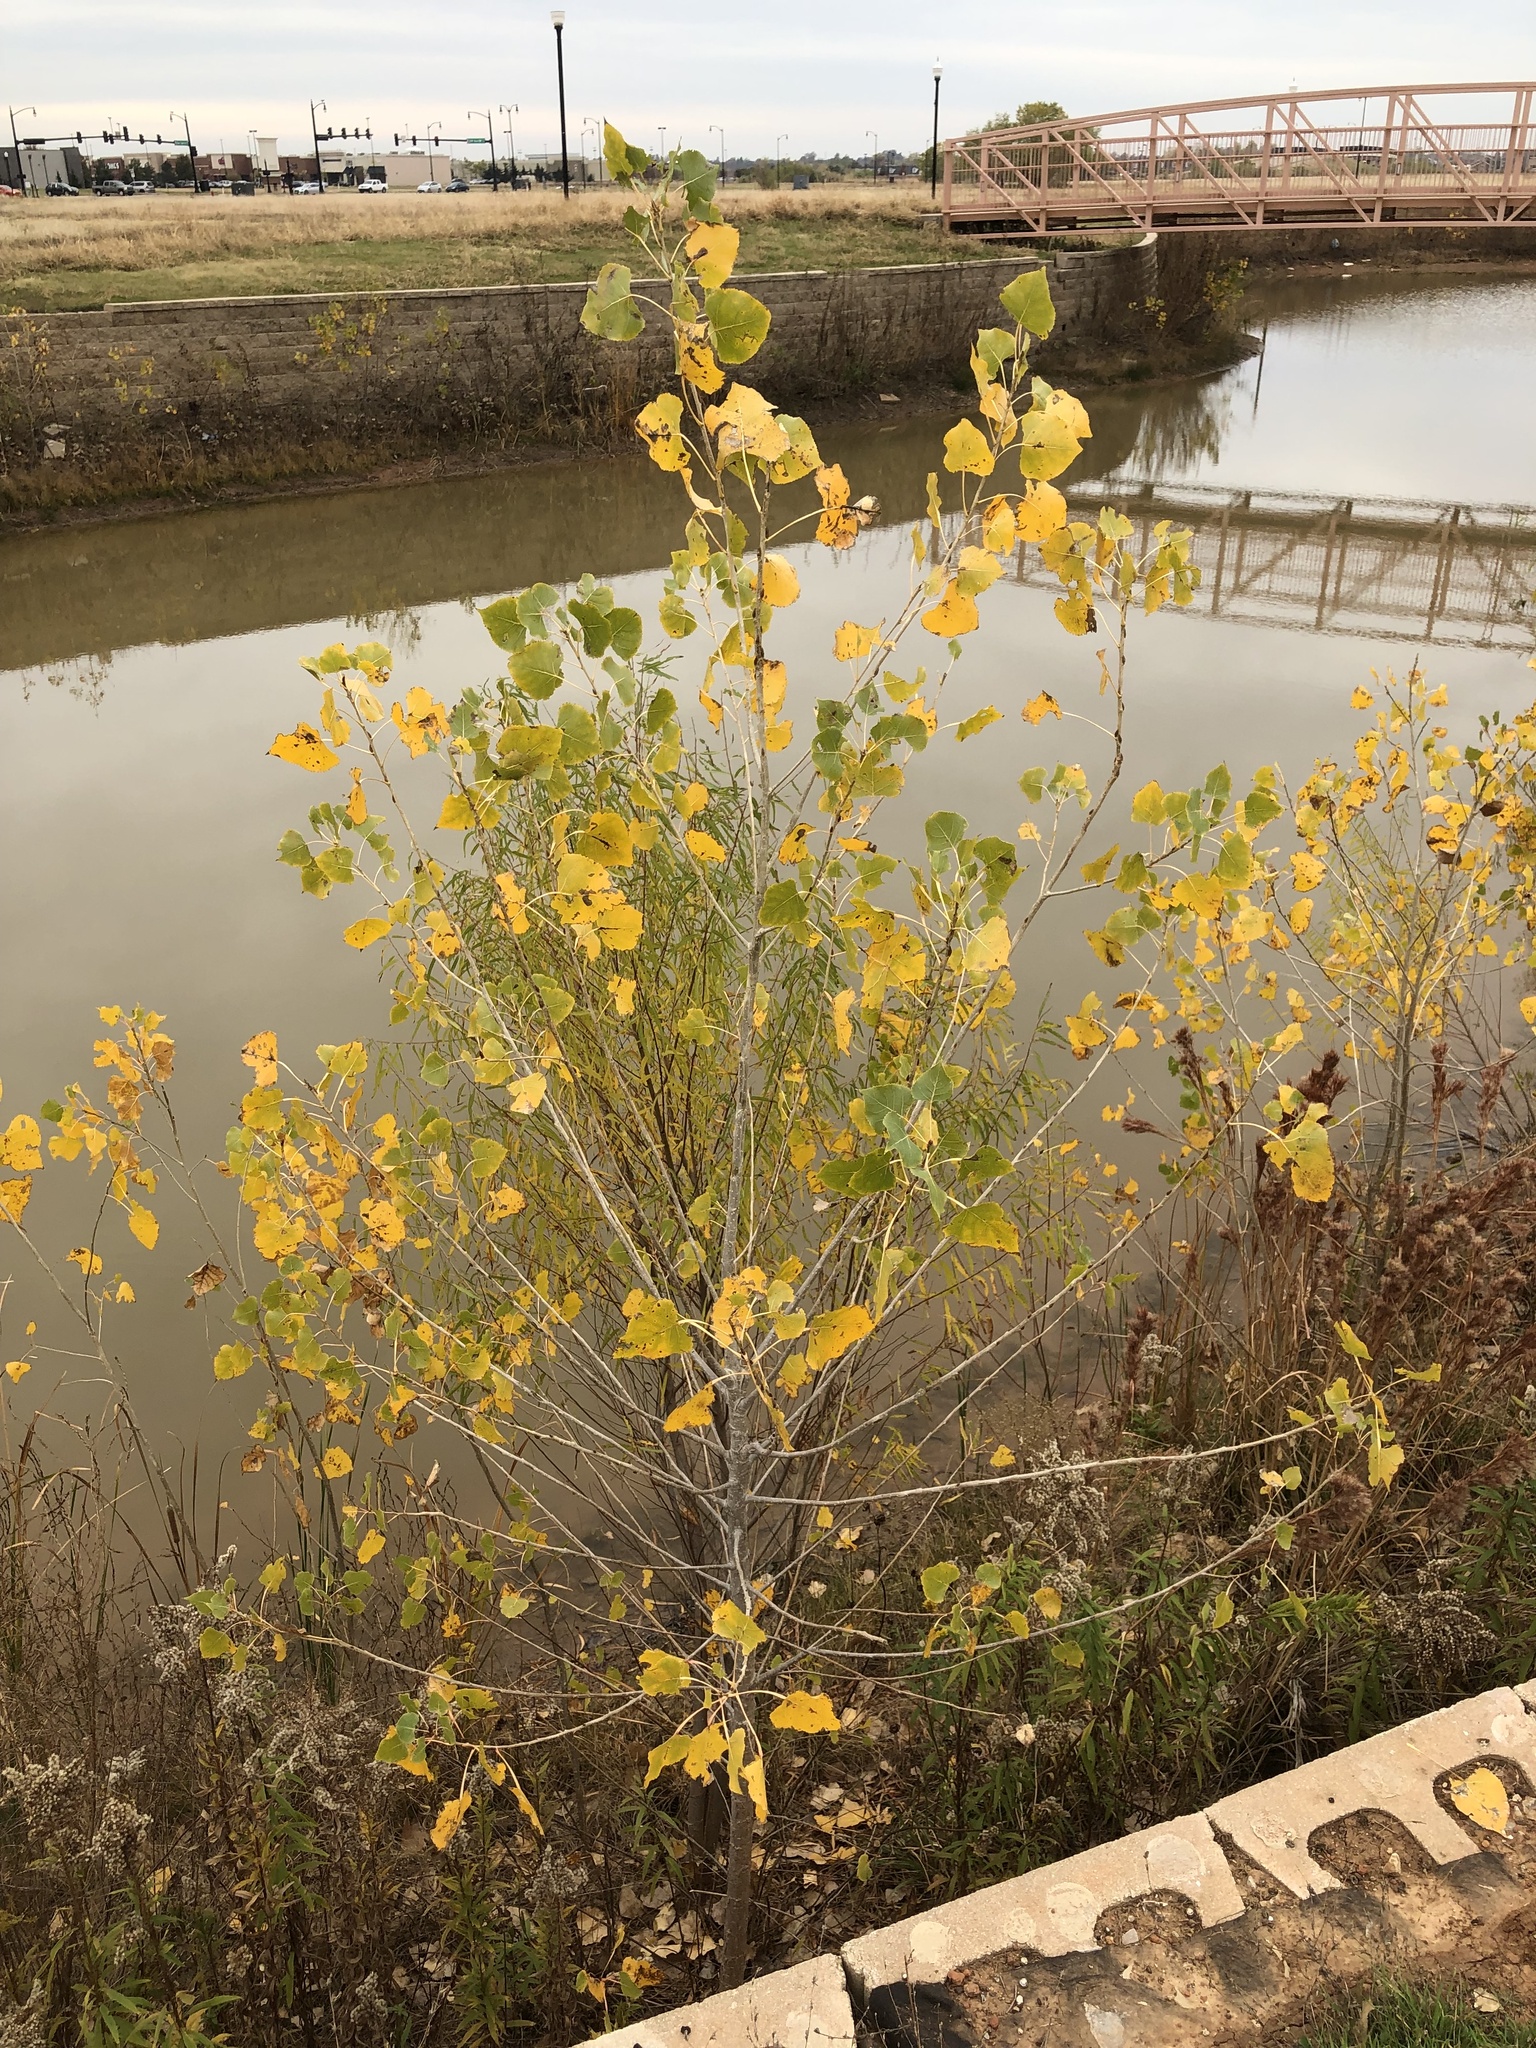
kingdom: Plantae
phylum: Tracheophyta
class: Magnoliopsida
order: Malpighiales
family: Salicaceae
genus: Populus
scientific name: Populus deltoides
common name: Eastern cottonwood
